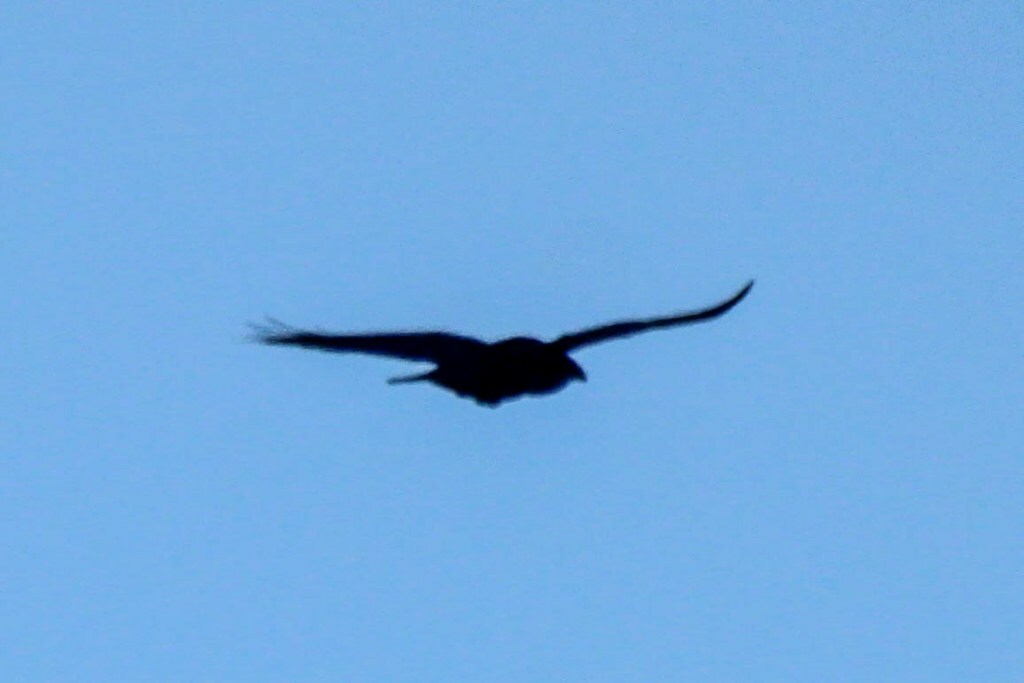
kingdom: Animalia
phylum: Chordata
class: Aves
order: Passeriformes
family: Corvidae
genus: Corvus
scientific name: Corvus corax
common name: Common raven
